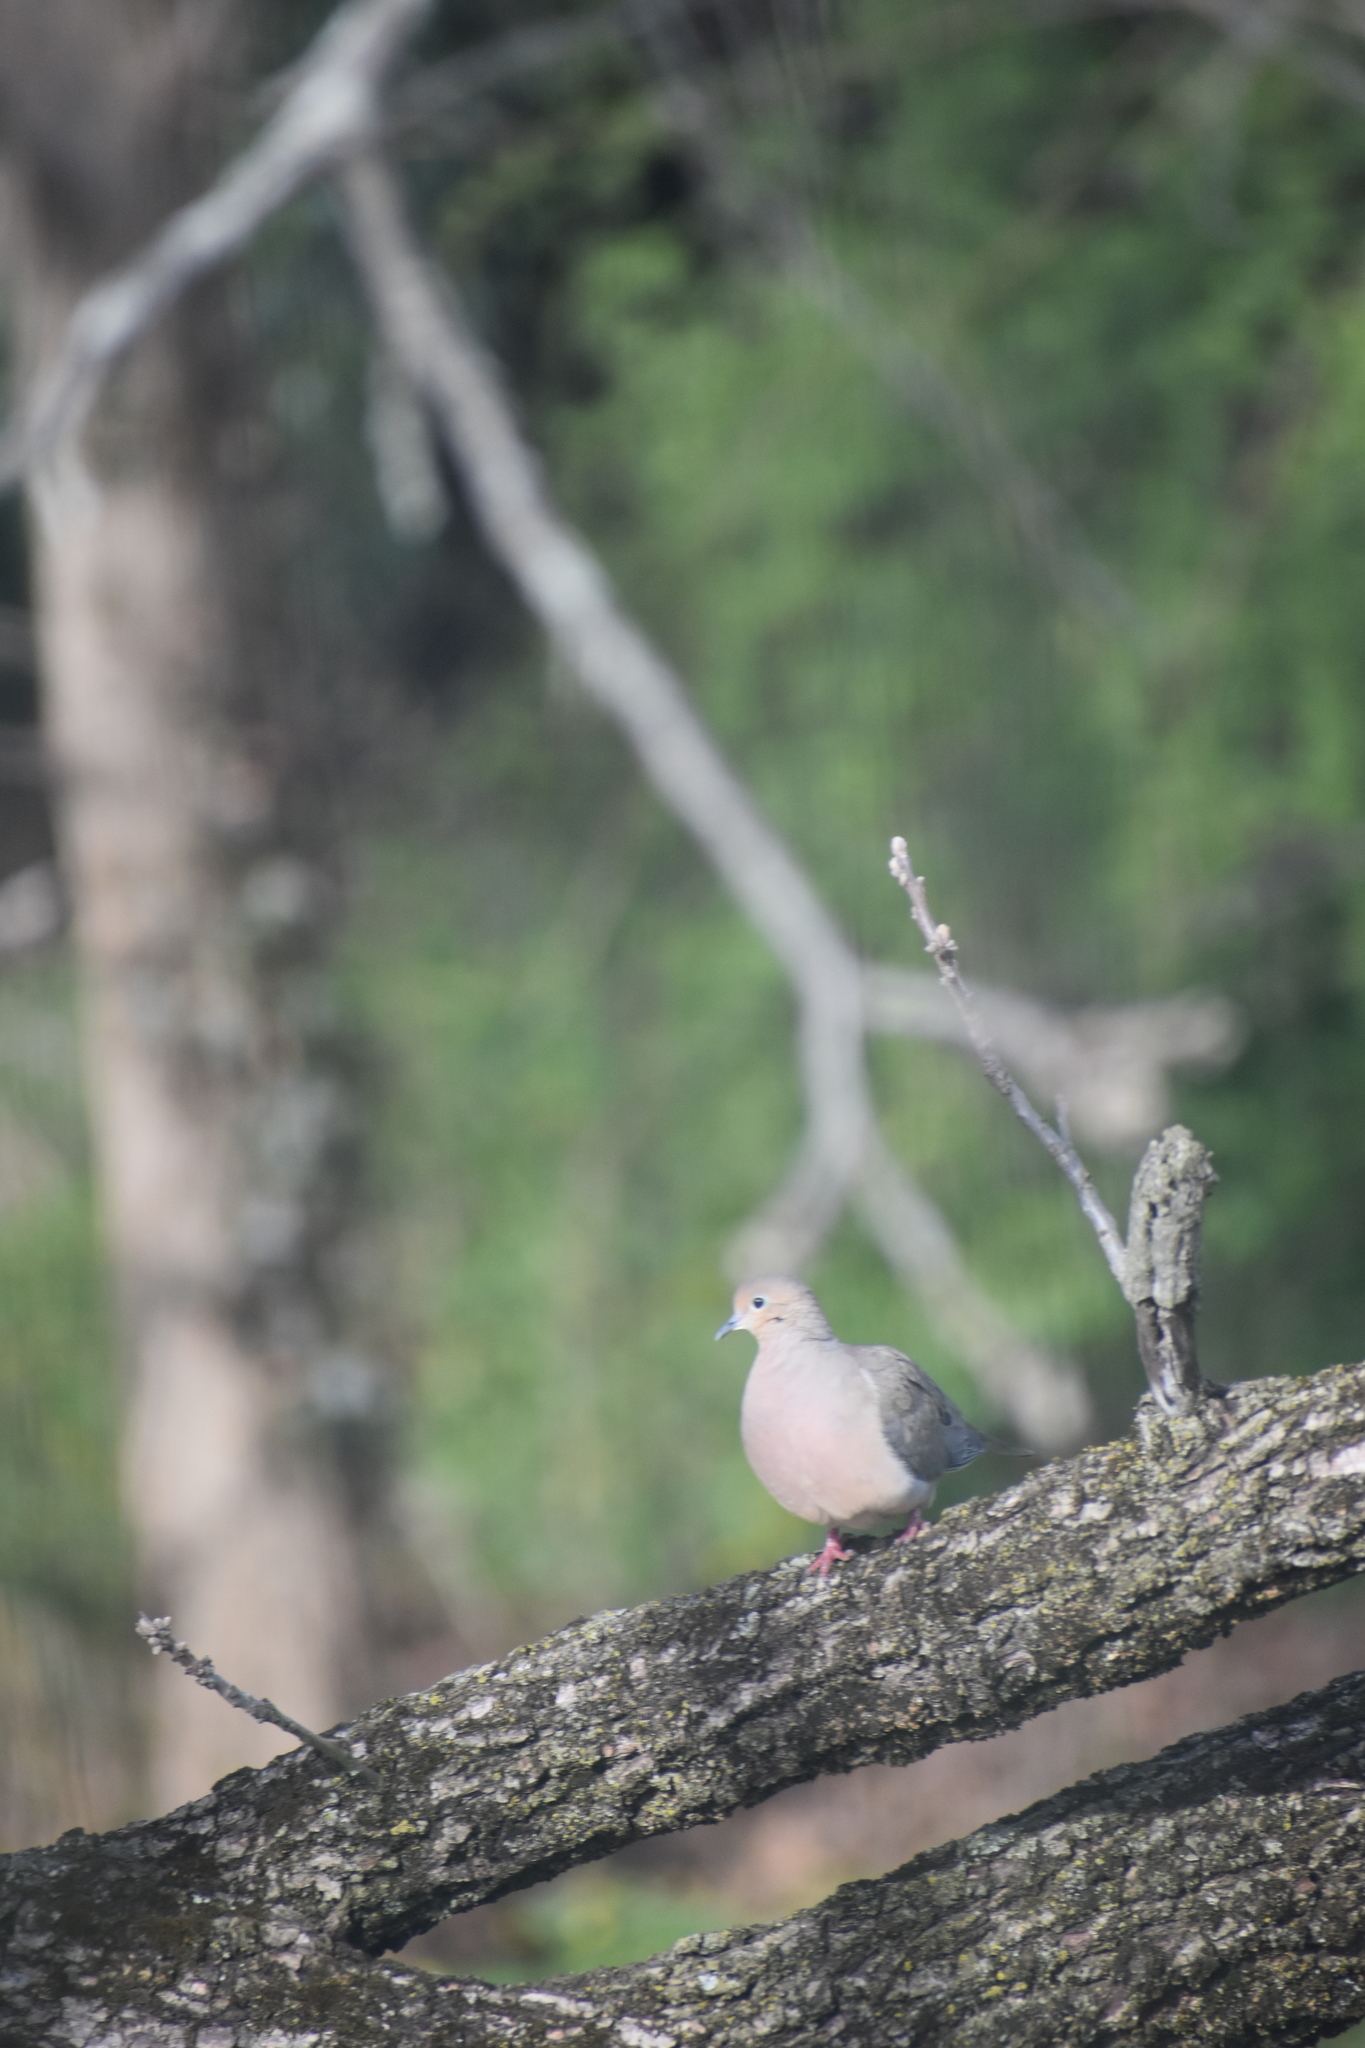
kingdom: Animalia
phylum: Chordata
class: Aves
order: Columbiformes
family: Columbidae
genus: Zenaida
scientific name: Zenaida macroura
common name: Mourning dove
